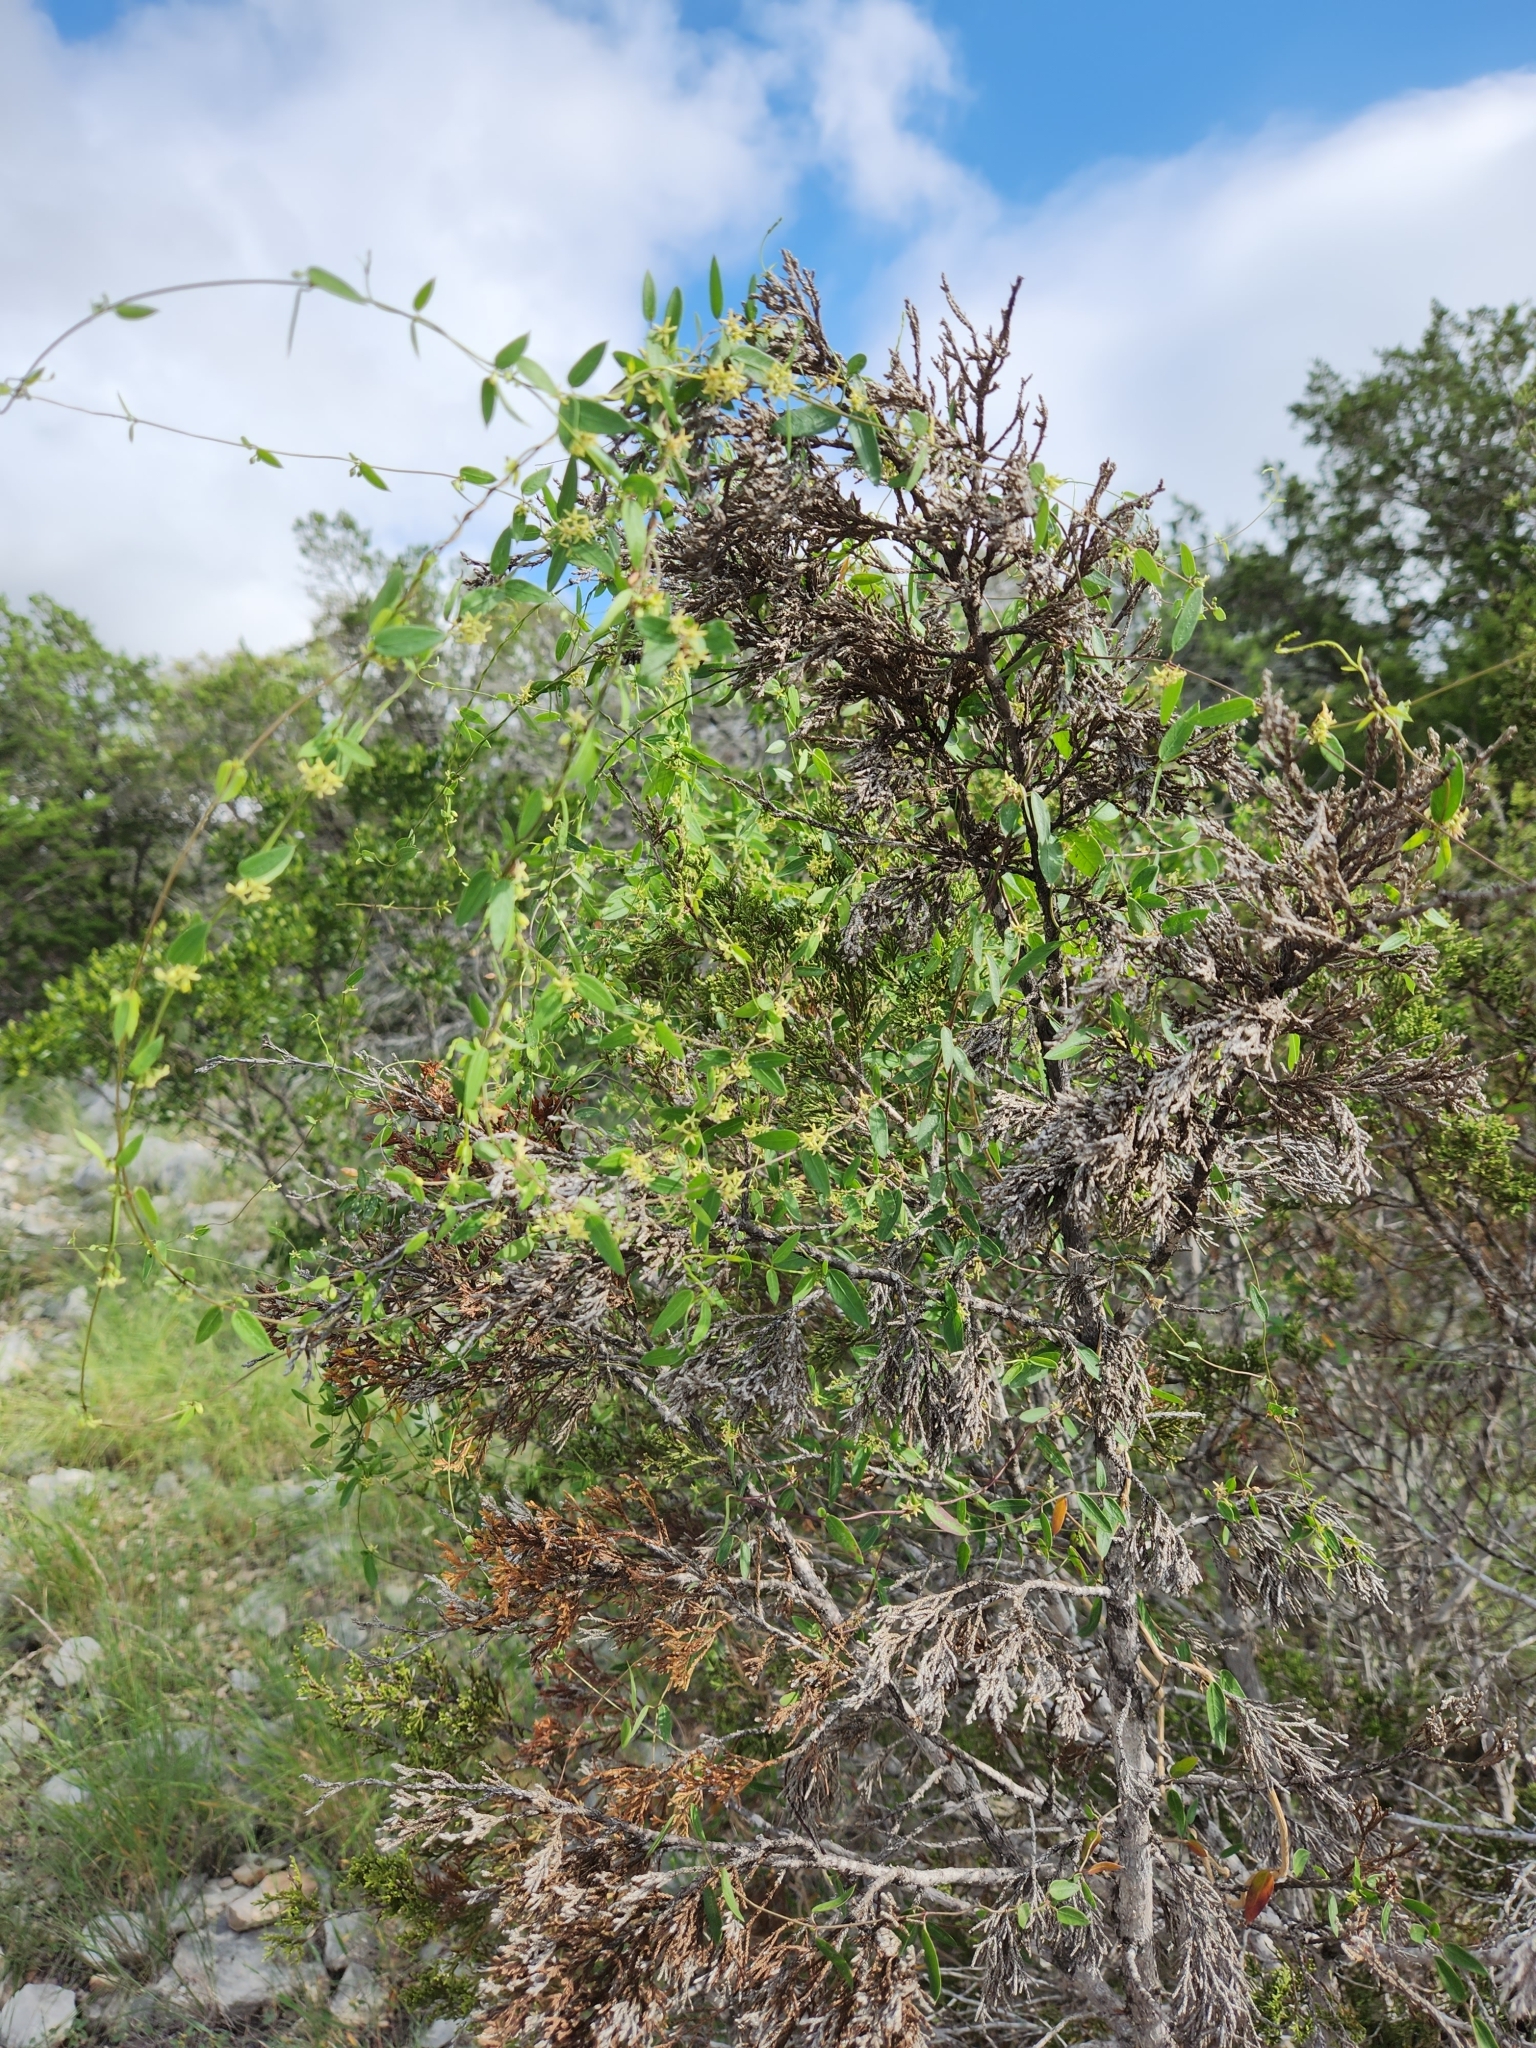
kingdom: Plantae
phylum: Tracheophyta
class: Magnoliopsida
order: Gentianales
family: Apocynaceae
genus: Metastelma
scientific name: Metastelma palmeri
